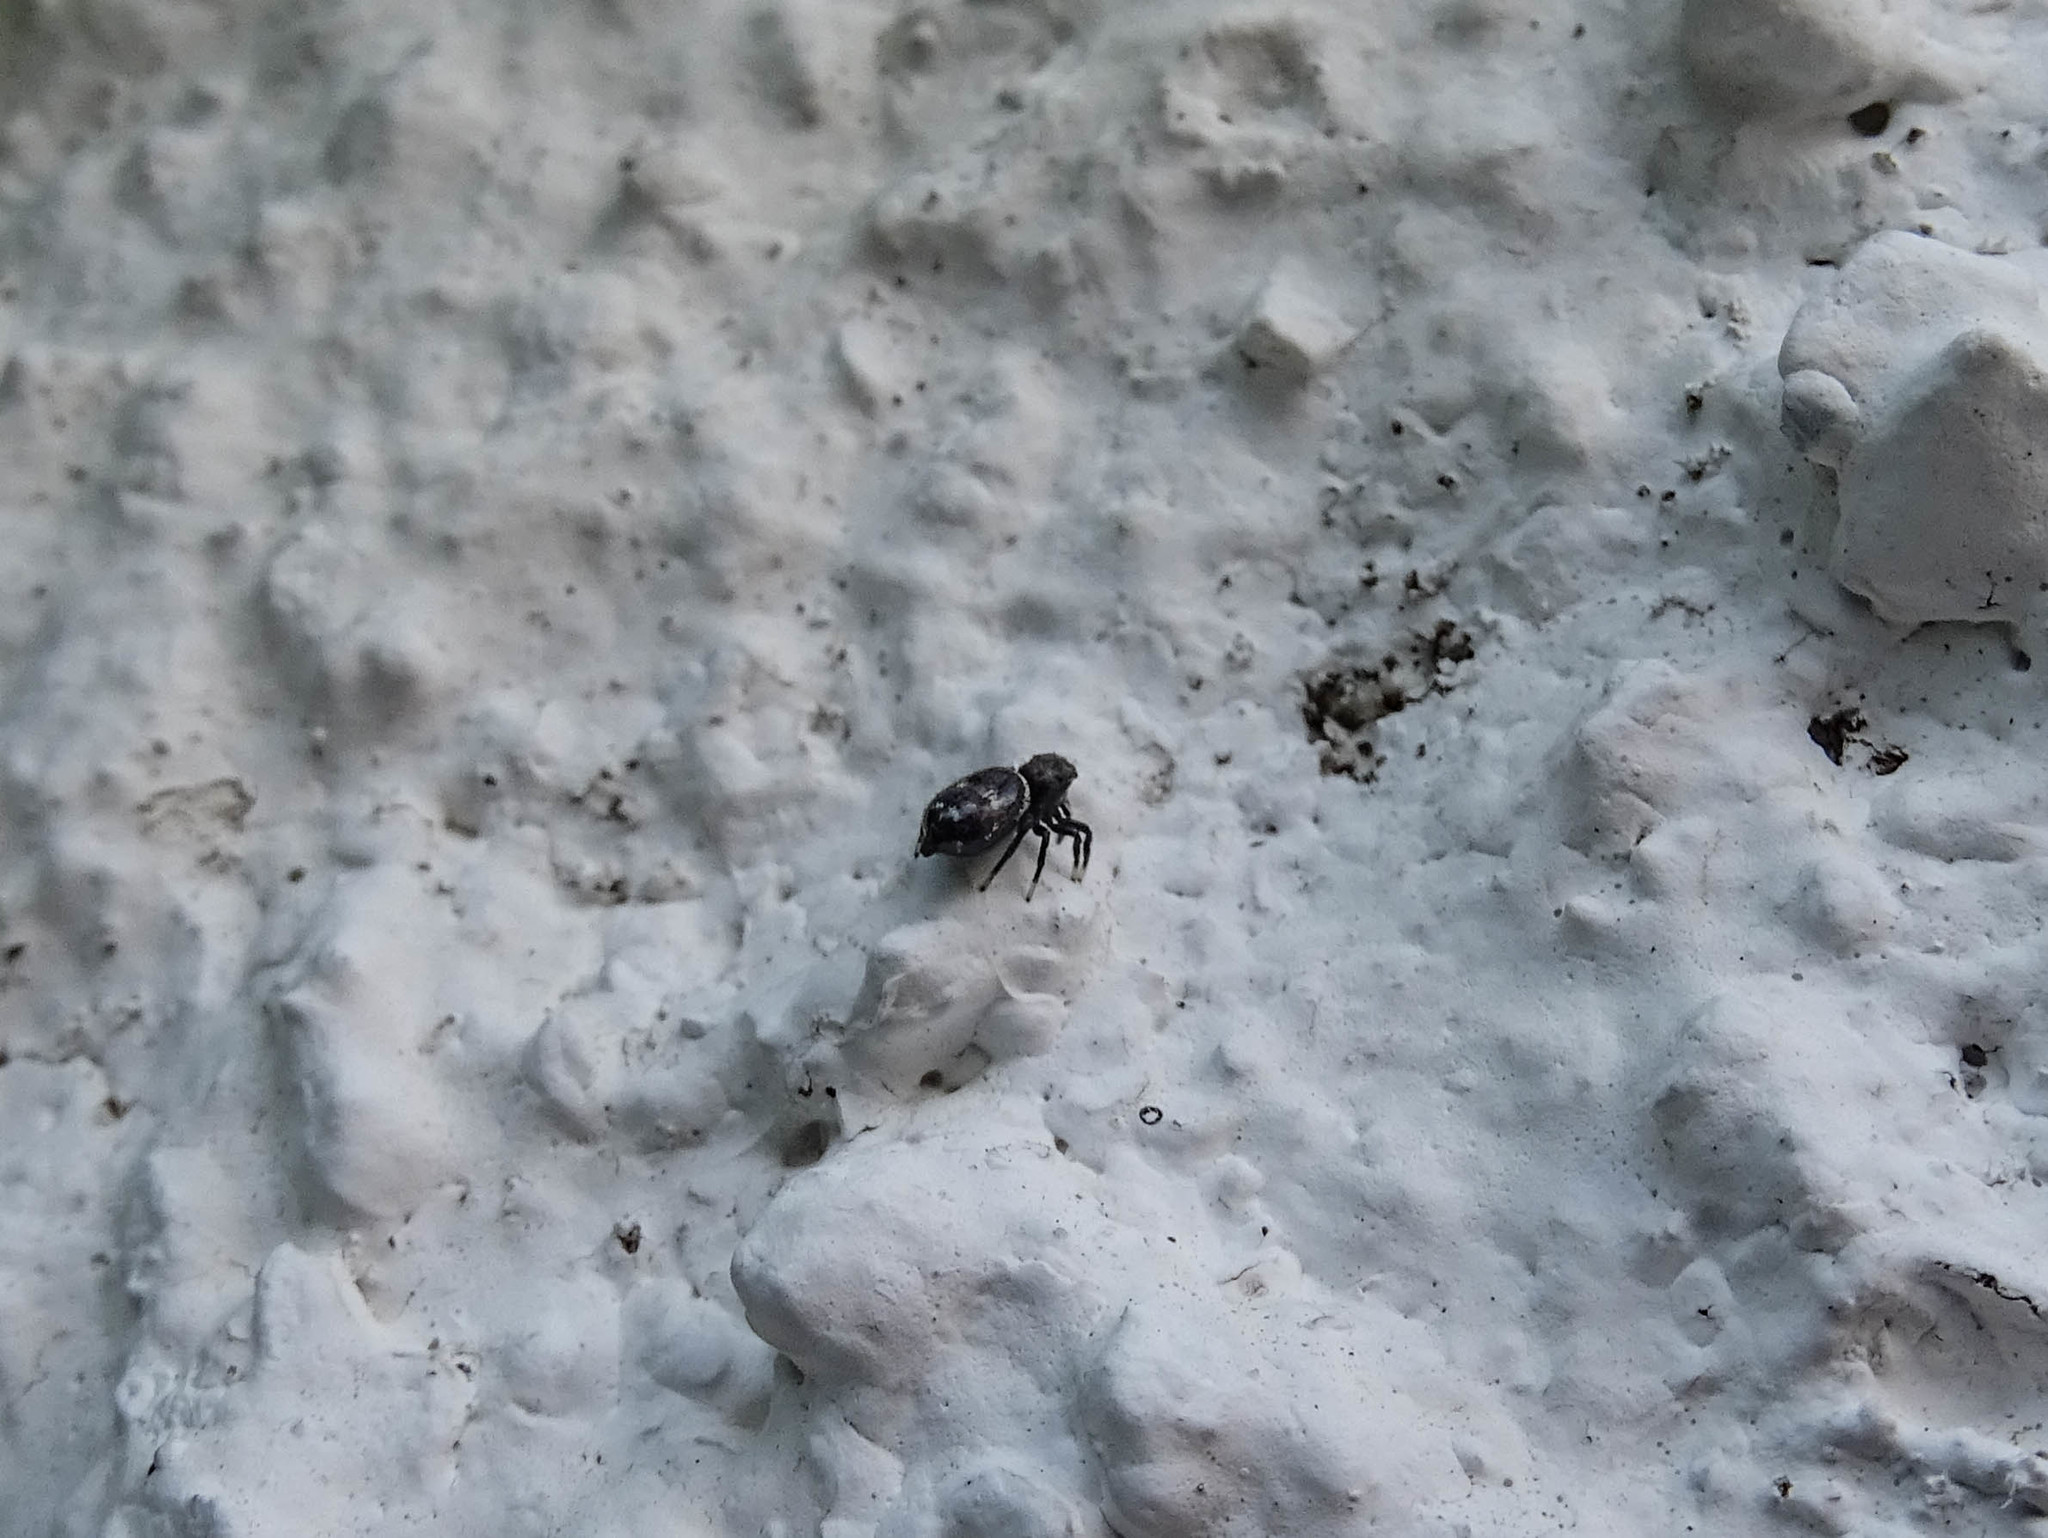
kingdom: Animalia
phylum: Arthropoda
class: Arachnida
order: Araneae
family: Salticidae
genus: Heliophanus
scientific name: Heliophanus kochii
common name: Sun jumping spider
